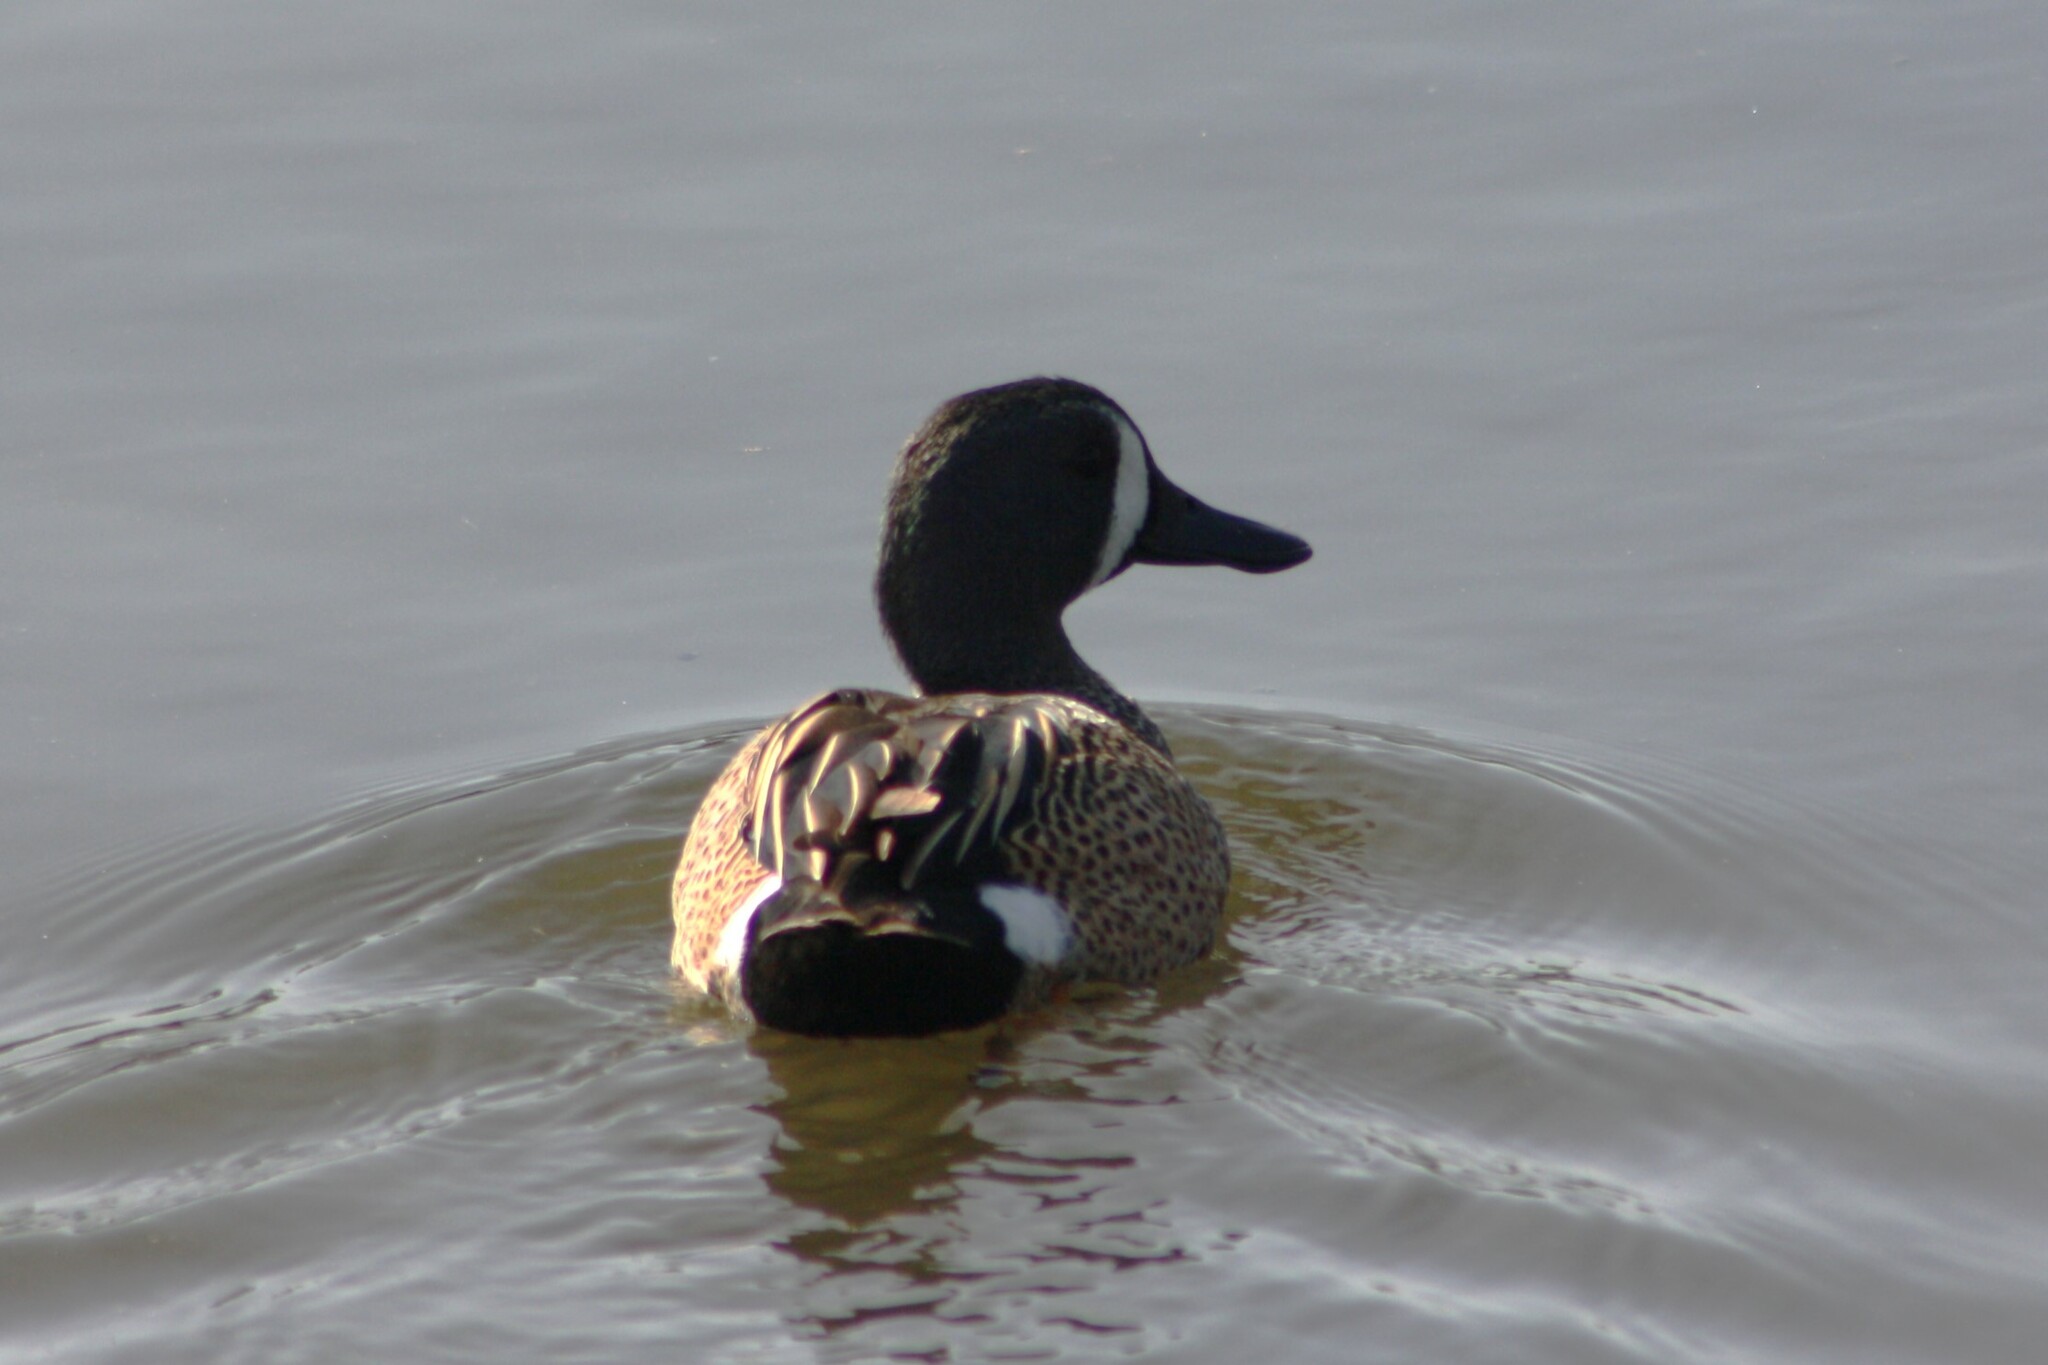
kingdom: Animalia
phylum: Chordata
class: Aves
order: Anseriformes
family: Anatidae
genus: Spatula
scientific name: Spatula discors
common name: Blue-winged teal
